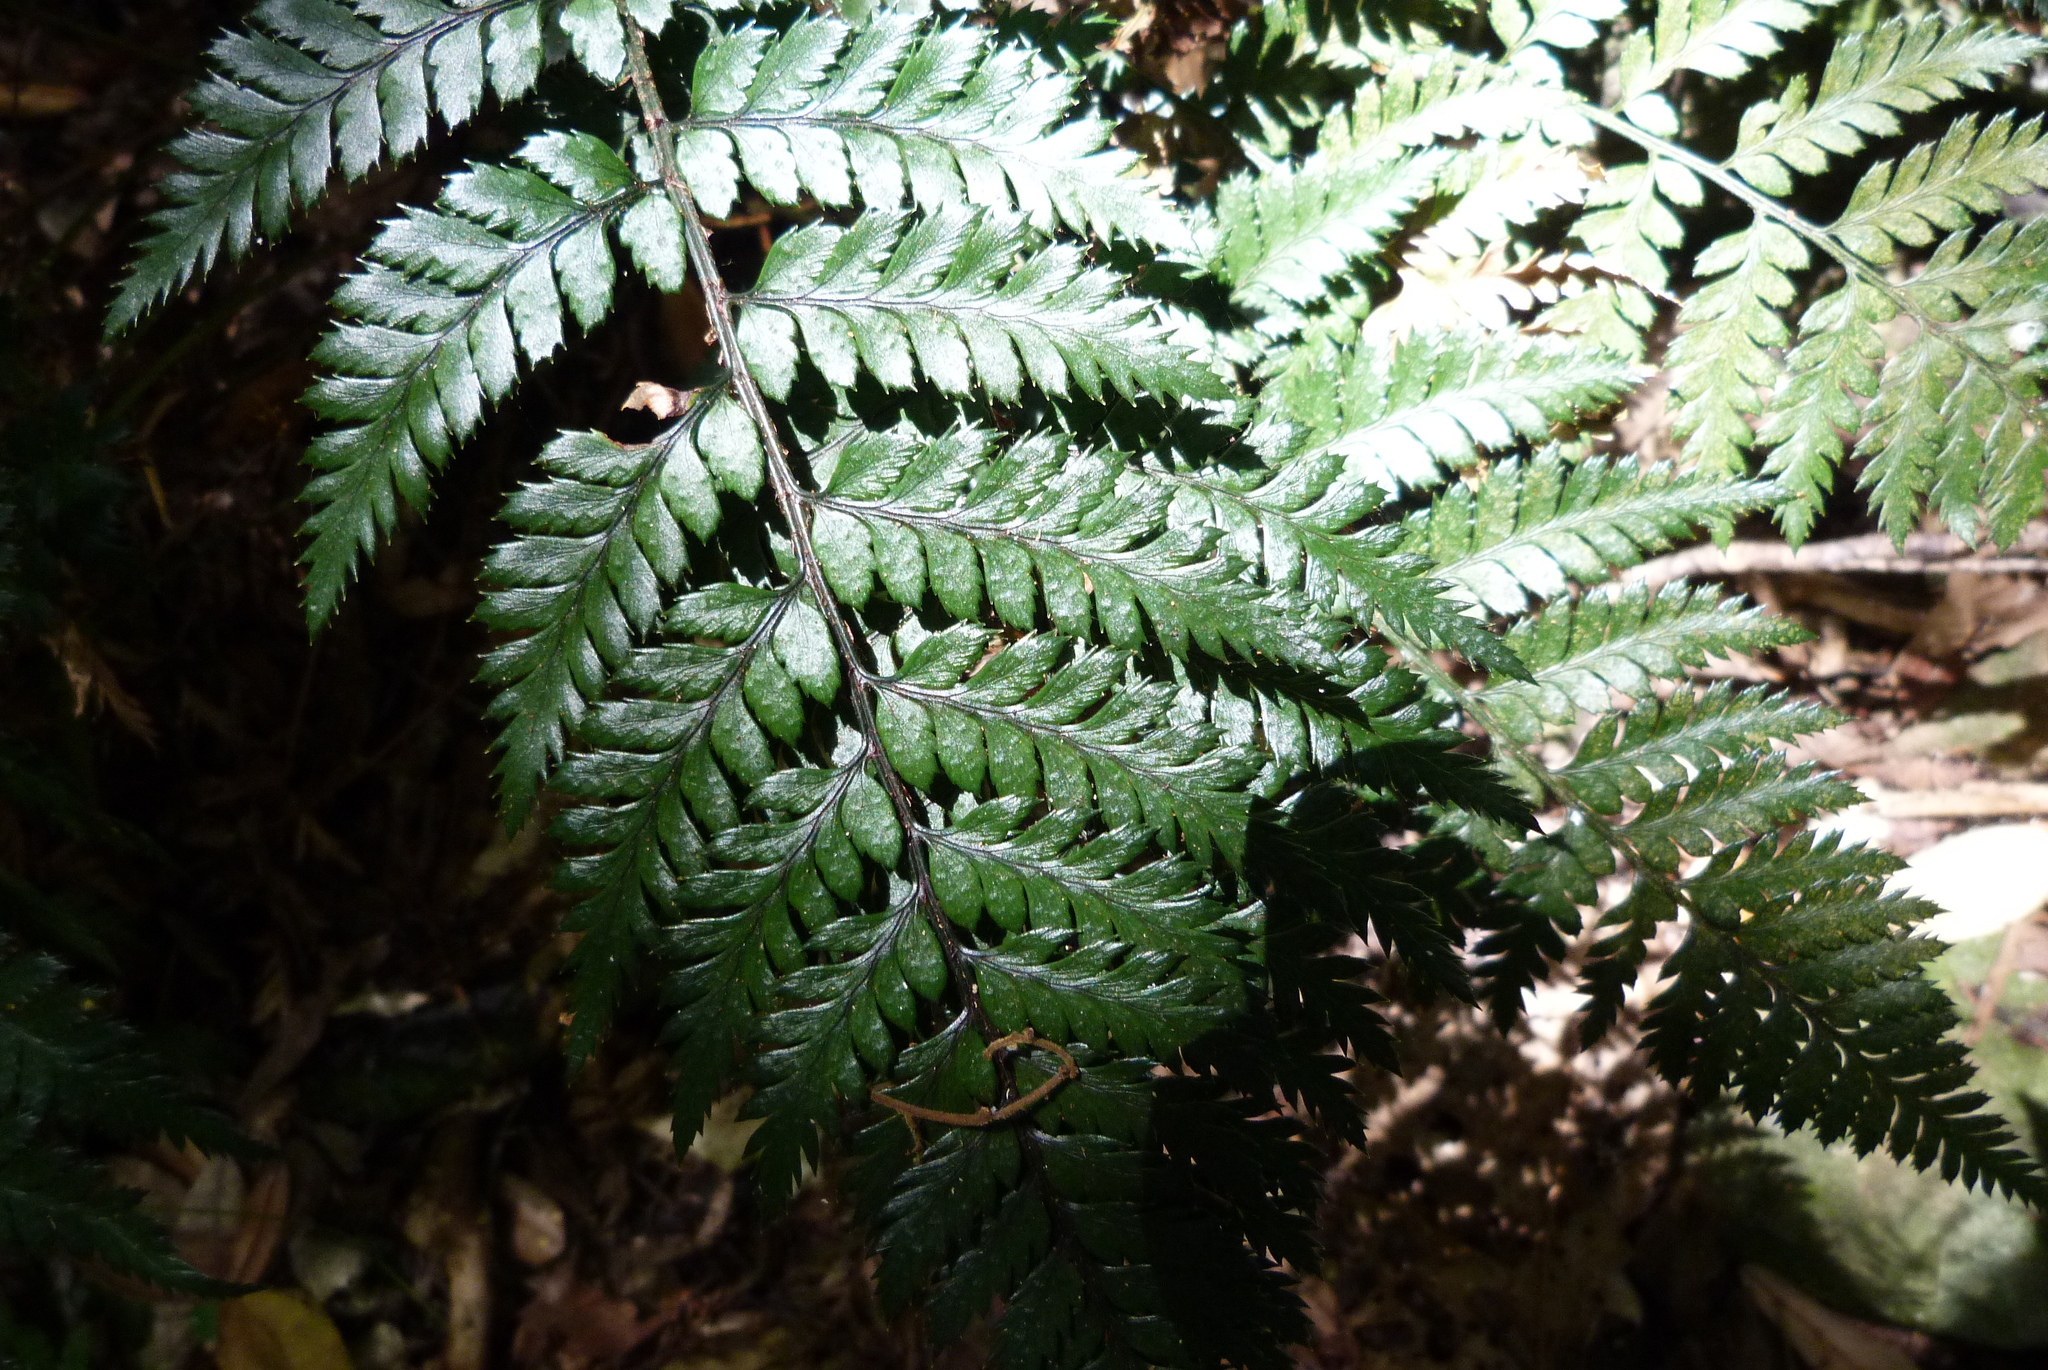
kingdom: Plantae
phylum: Tracheophyta
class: Polypodiopsida
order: Polypodiales
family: Dryopteridaceae
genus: Polystichum
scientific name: Polystichum neozelandicum
